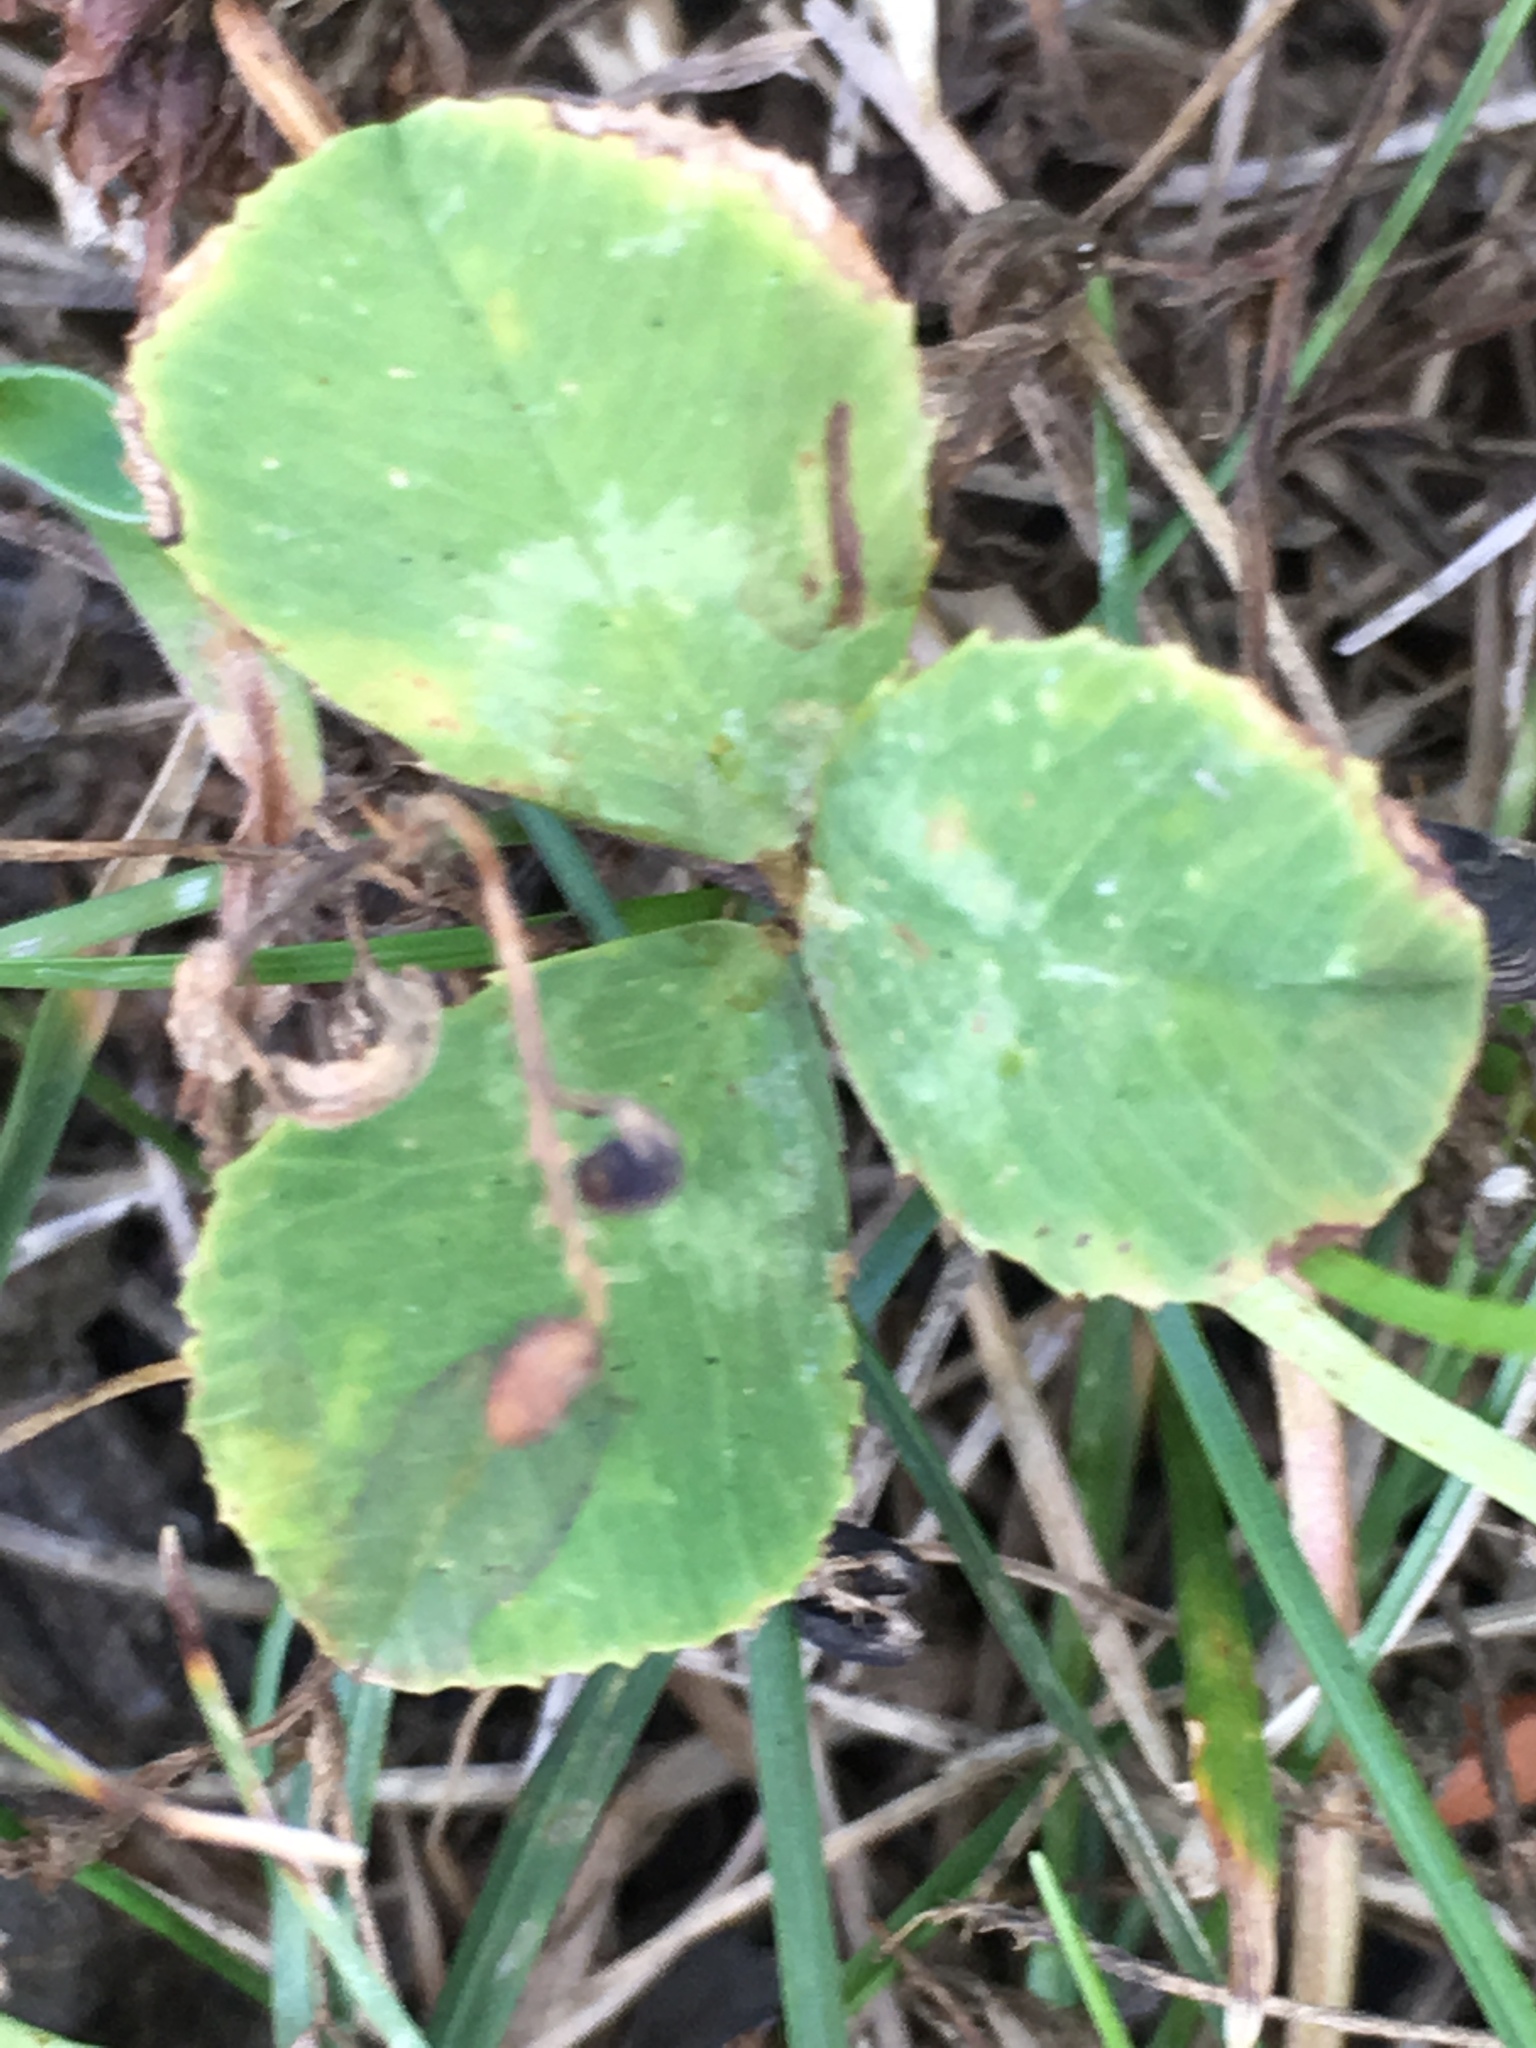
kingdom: Plantae
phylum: Tracheophyta
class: Magnoliopsida
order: Fabales
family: Fabaceae
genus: Trifolium
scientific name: Trifolium repens
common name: White clover
